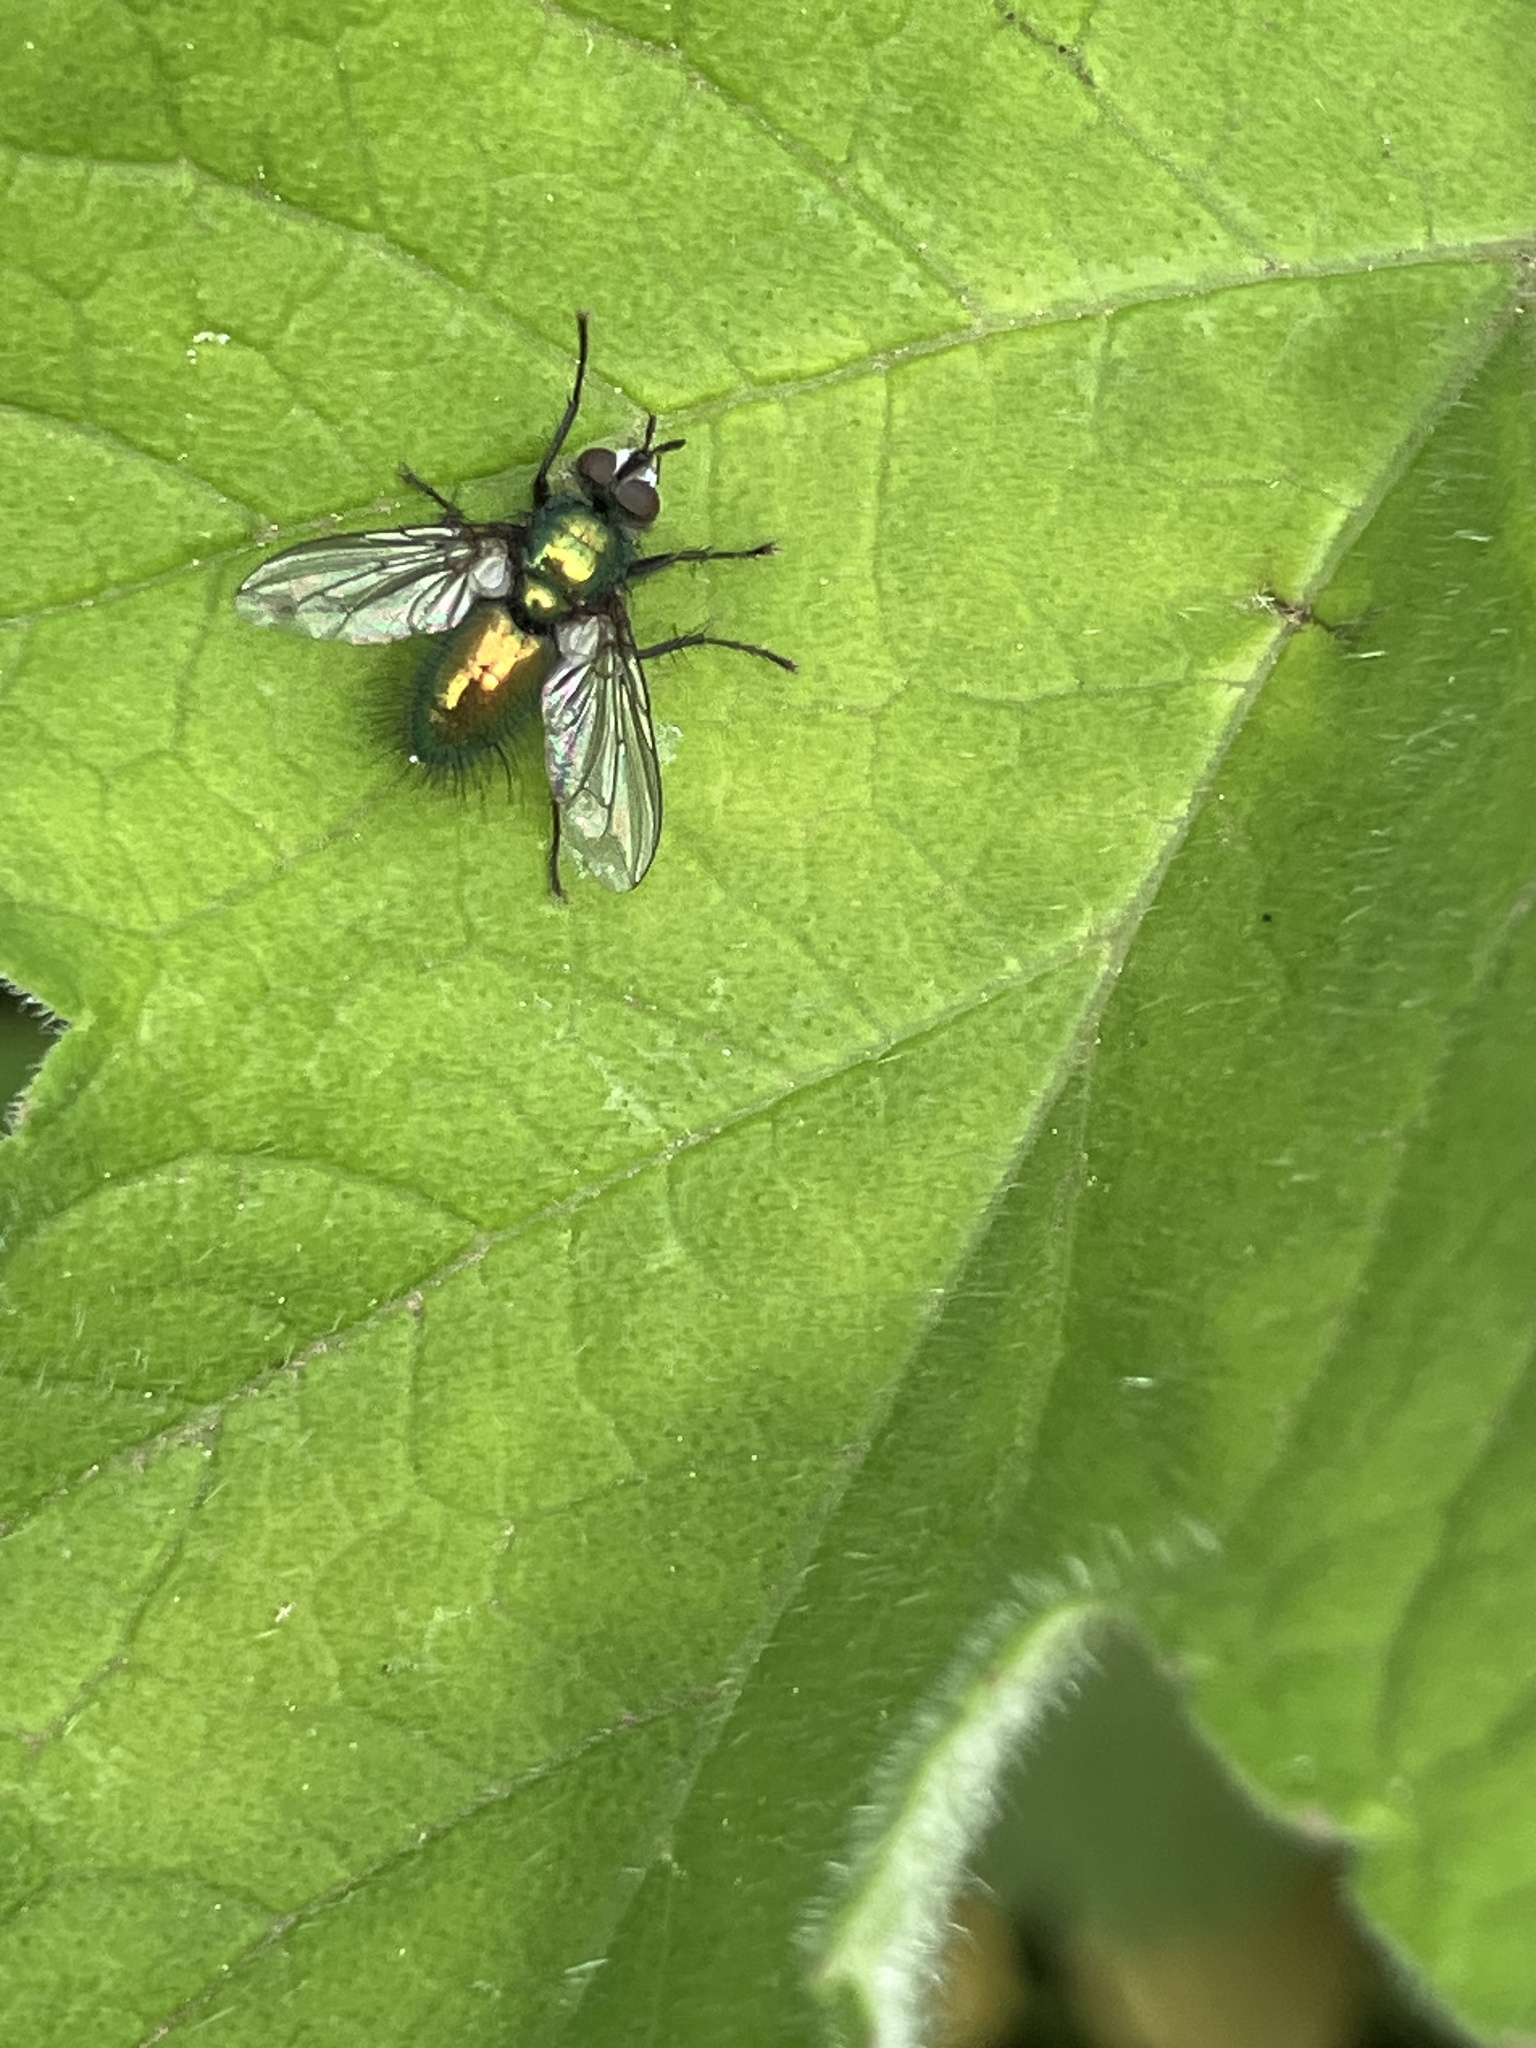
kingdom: Animalia
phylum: Arthropoda
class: Insecta
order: Diptera
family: Tachinidae
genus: Gymnocheta
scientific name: Gymnocheta viridis
